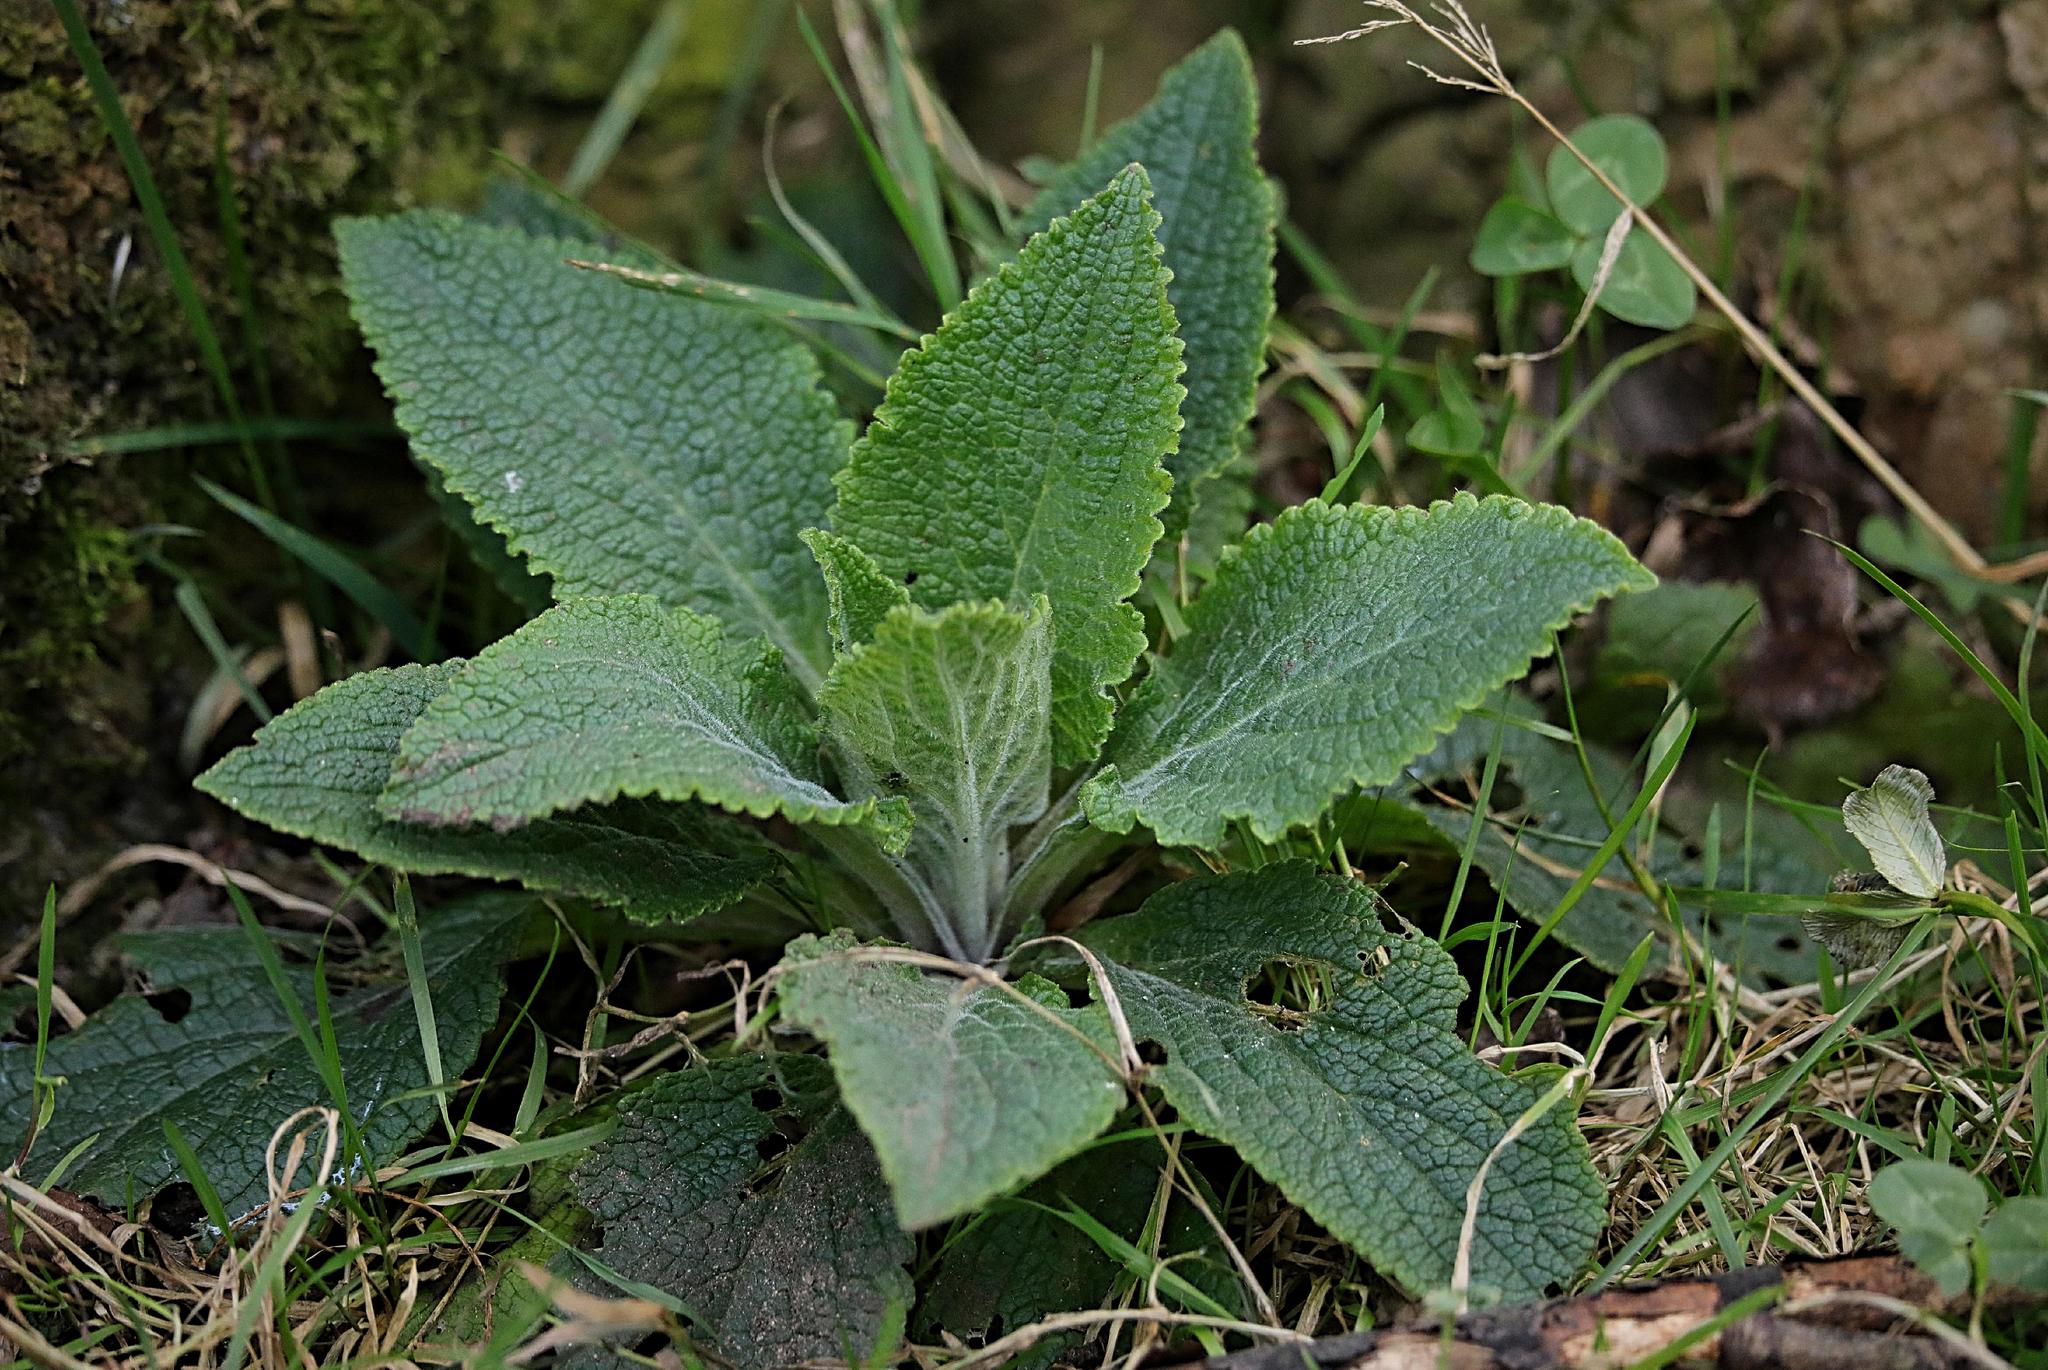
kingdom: Plantae
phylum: Tracheophyta
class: Magnoliopsida
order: Lamiales
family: Plantaginaceae
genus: Digitalis
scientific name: Digitalis purpurea
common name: Foxglove
